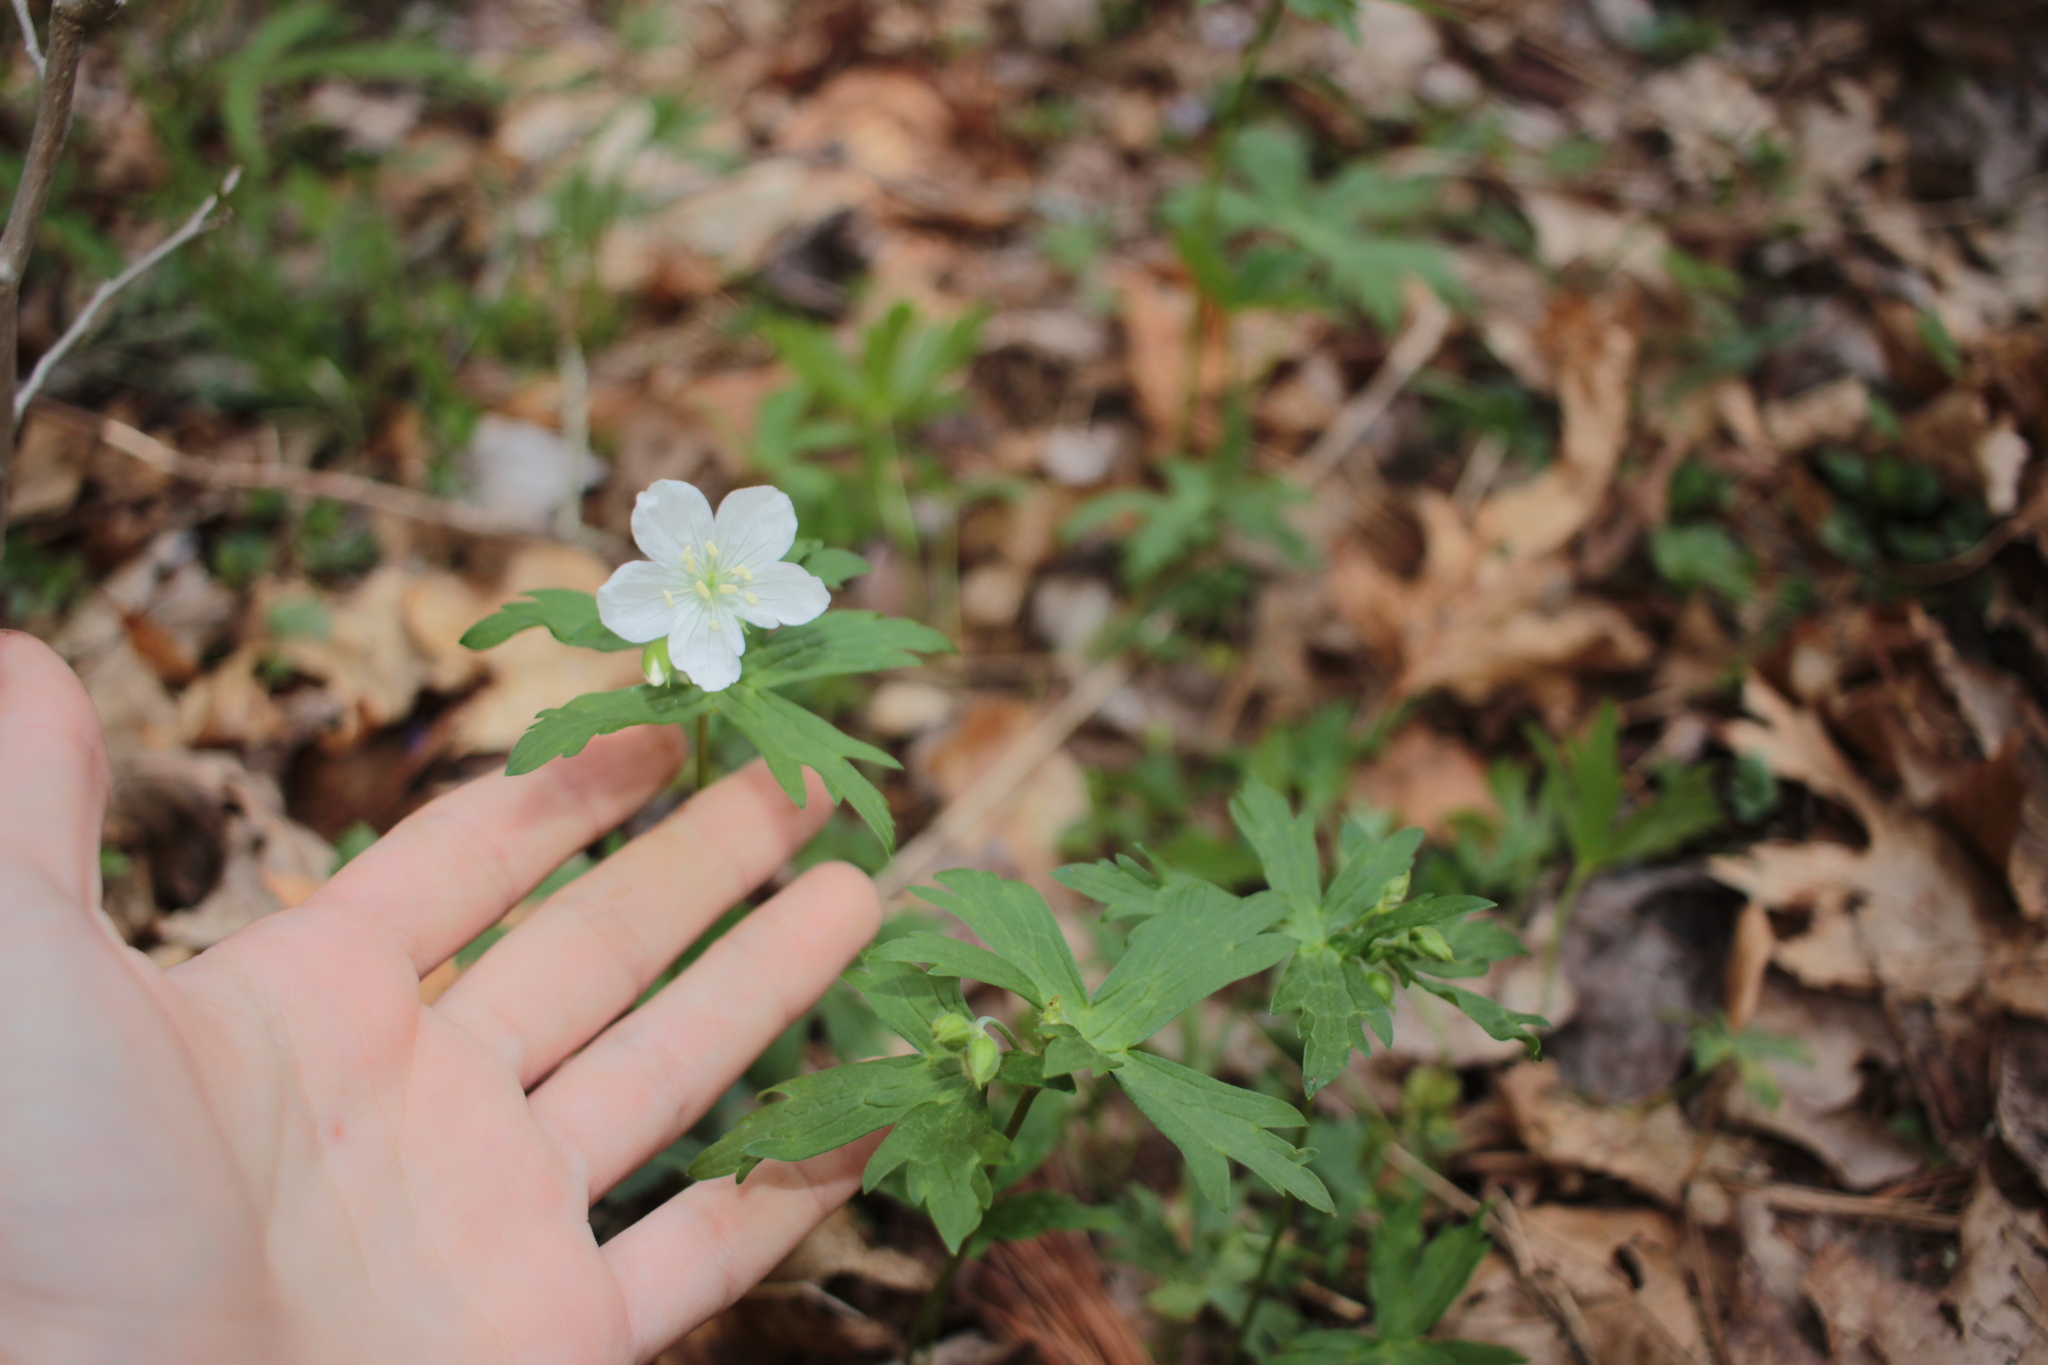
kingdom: Plantae
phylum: Tracheophyta
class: Magnoliopsida
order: Geraniales
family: Geraniaceae
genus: Geranium
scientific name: Geranium maculatum
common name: Spotted geranium
